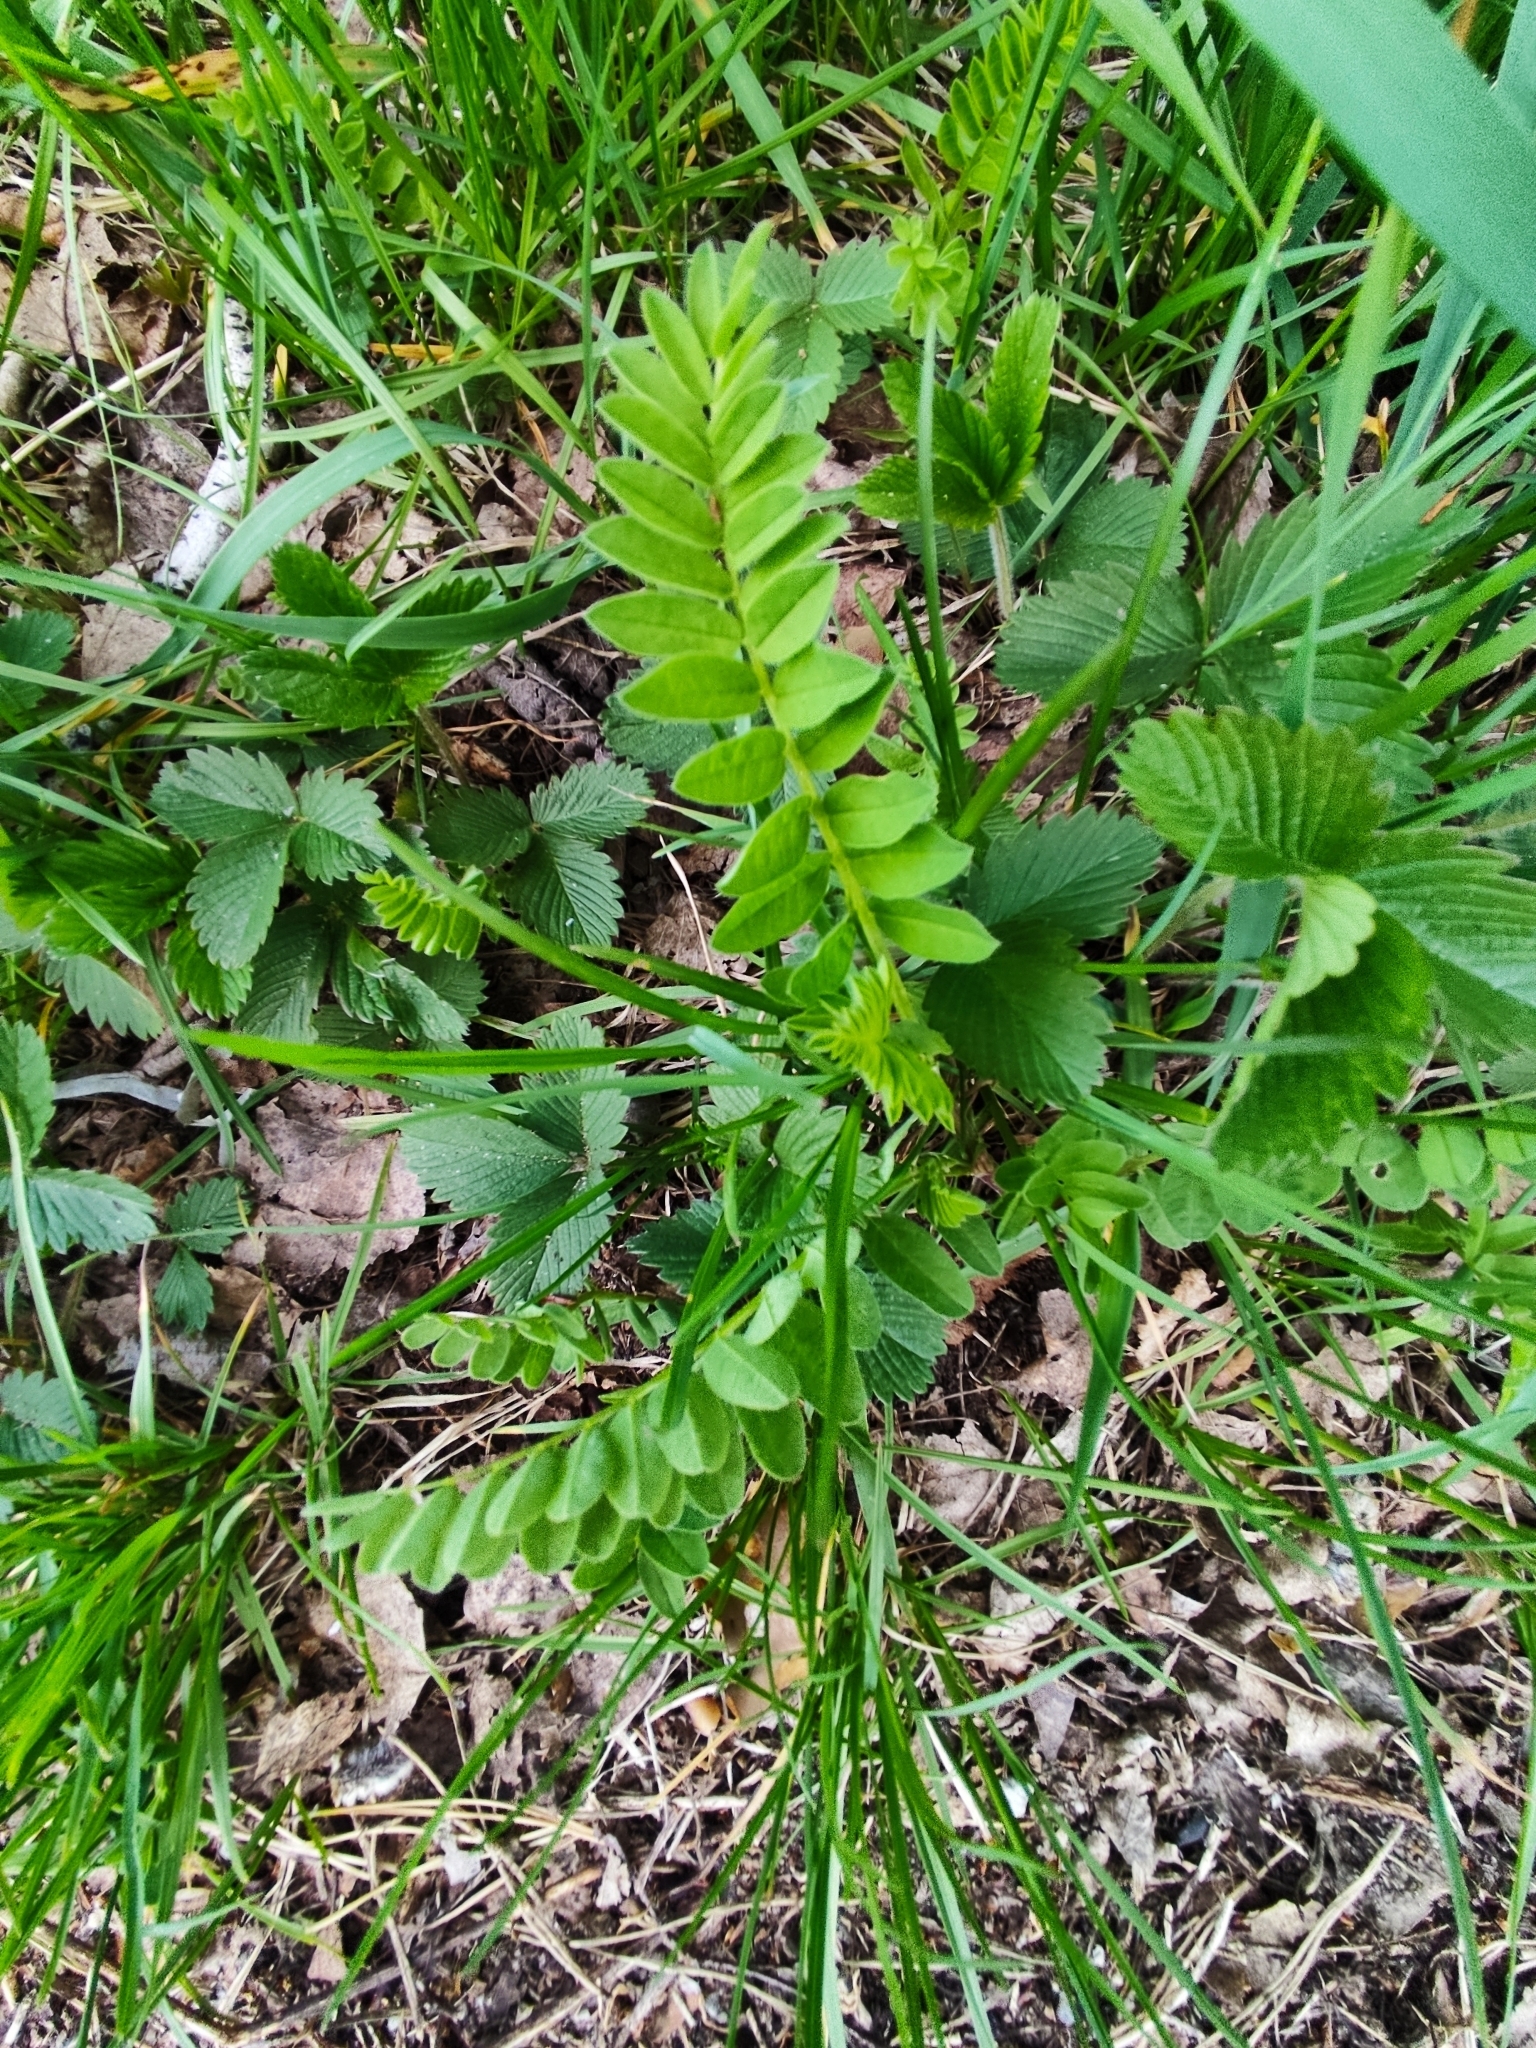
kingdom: Plantae
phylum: Tracheophyta
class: Magnoliopsida
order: Fabales
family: Fabaceae
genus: Astragalus
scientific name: Astragalus cicer
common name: Chick-pea milk-vetch
